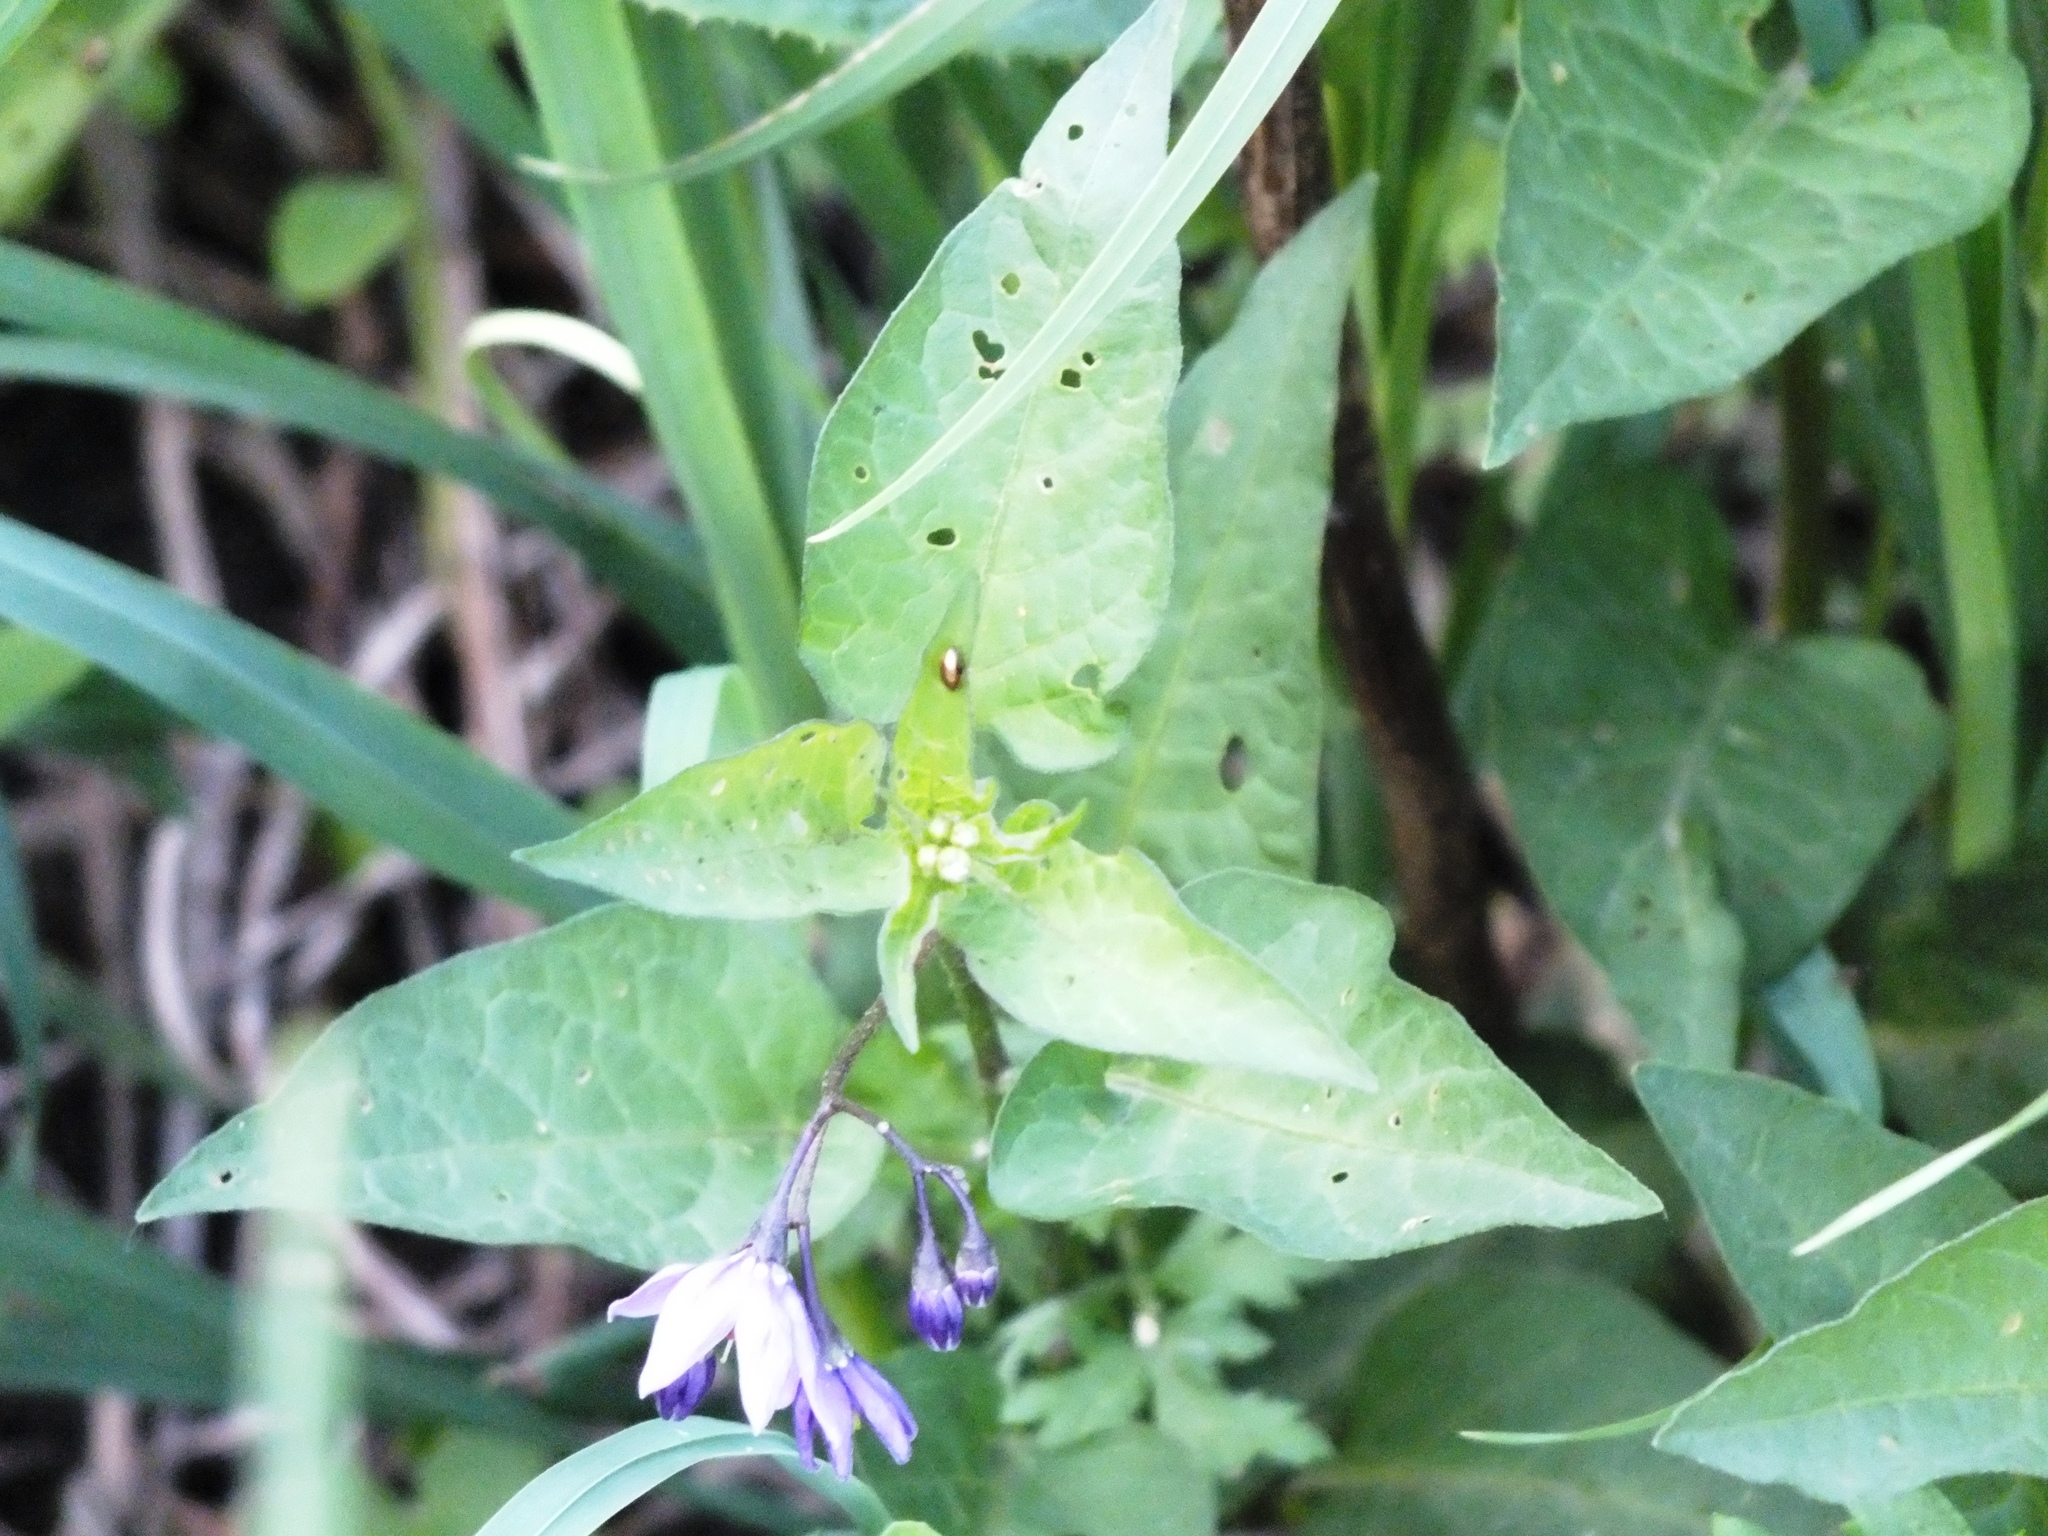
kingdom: Plantae
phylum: Tracheophyta
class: Magnoliopsida
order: Solanales
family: Solanaceae
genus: Solanum
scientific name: Solanum dulcamara
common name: Climbing nightshade
